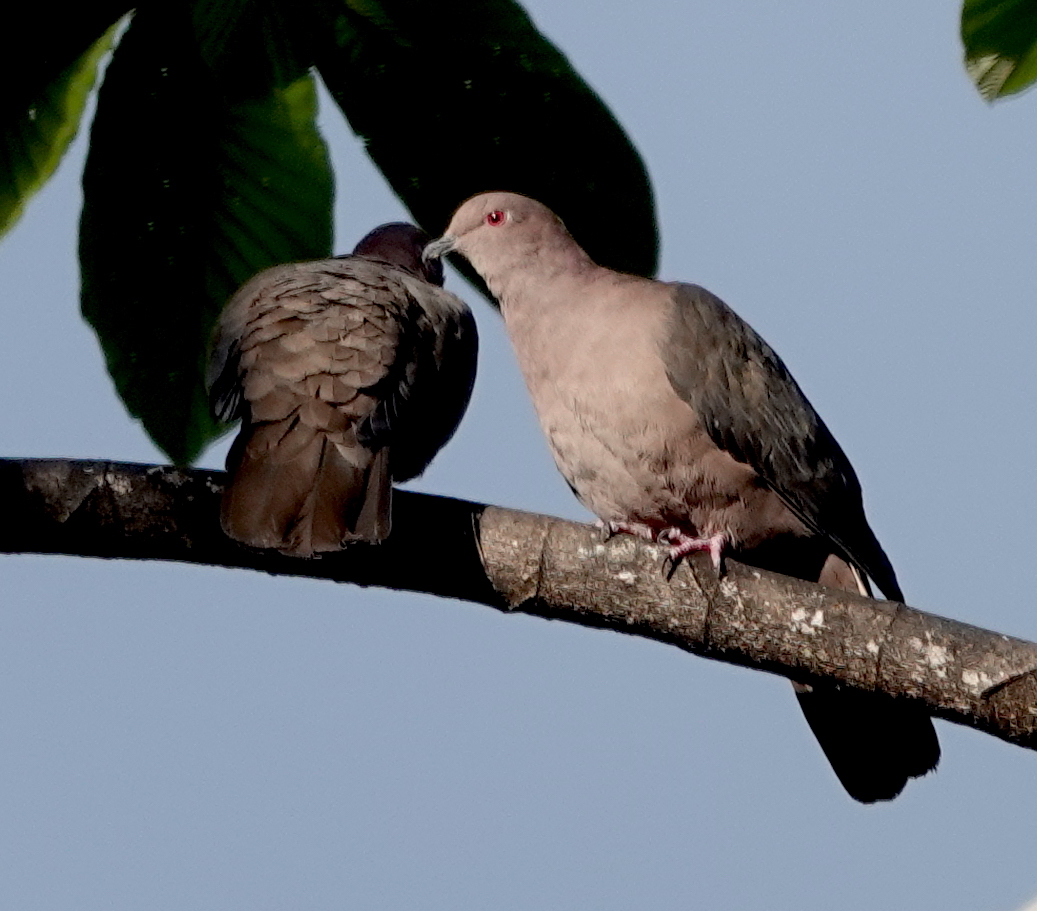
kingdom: Animalia
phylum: Chordata
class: Aves
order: Columbiformes
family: Columbidae
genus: Patagioenas
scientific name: Patagioenas nigrirostris
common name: Short-billed pigeon
